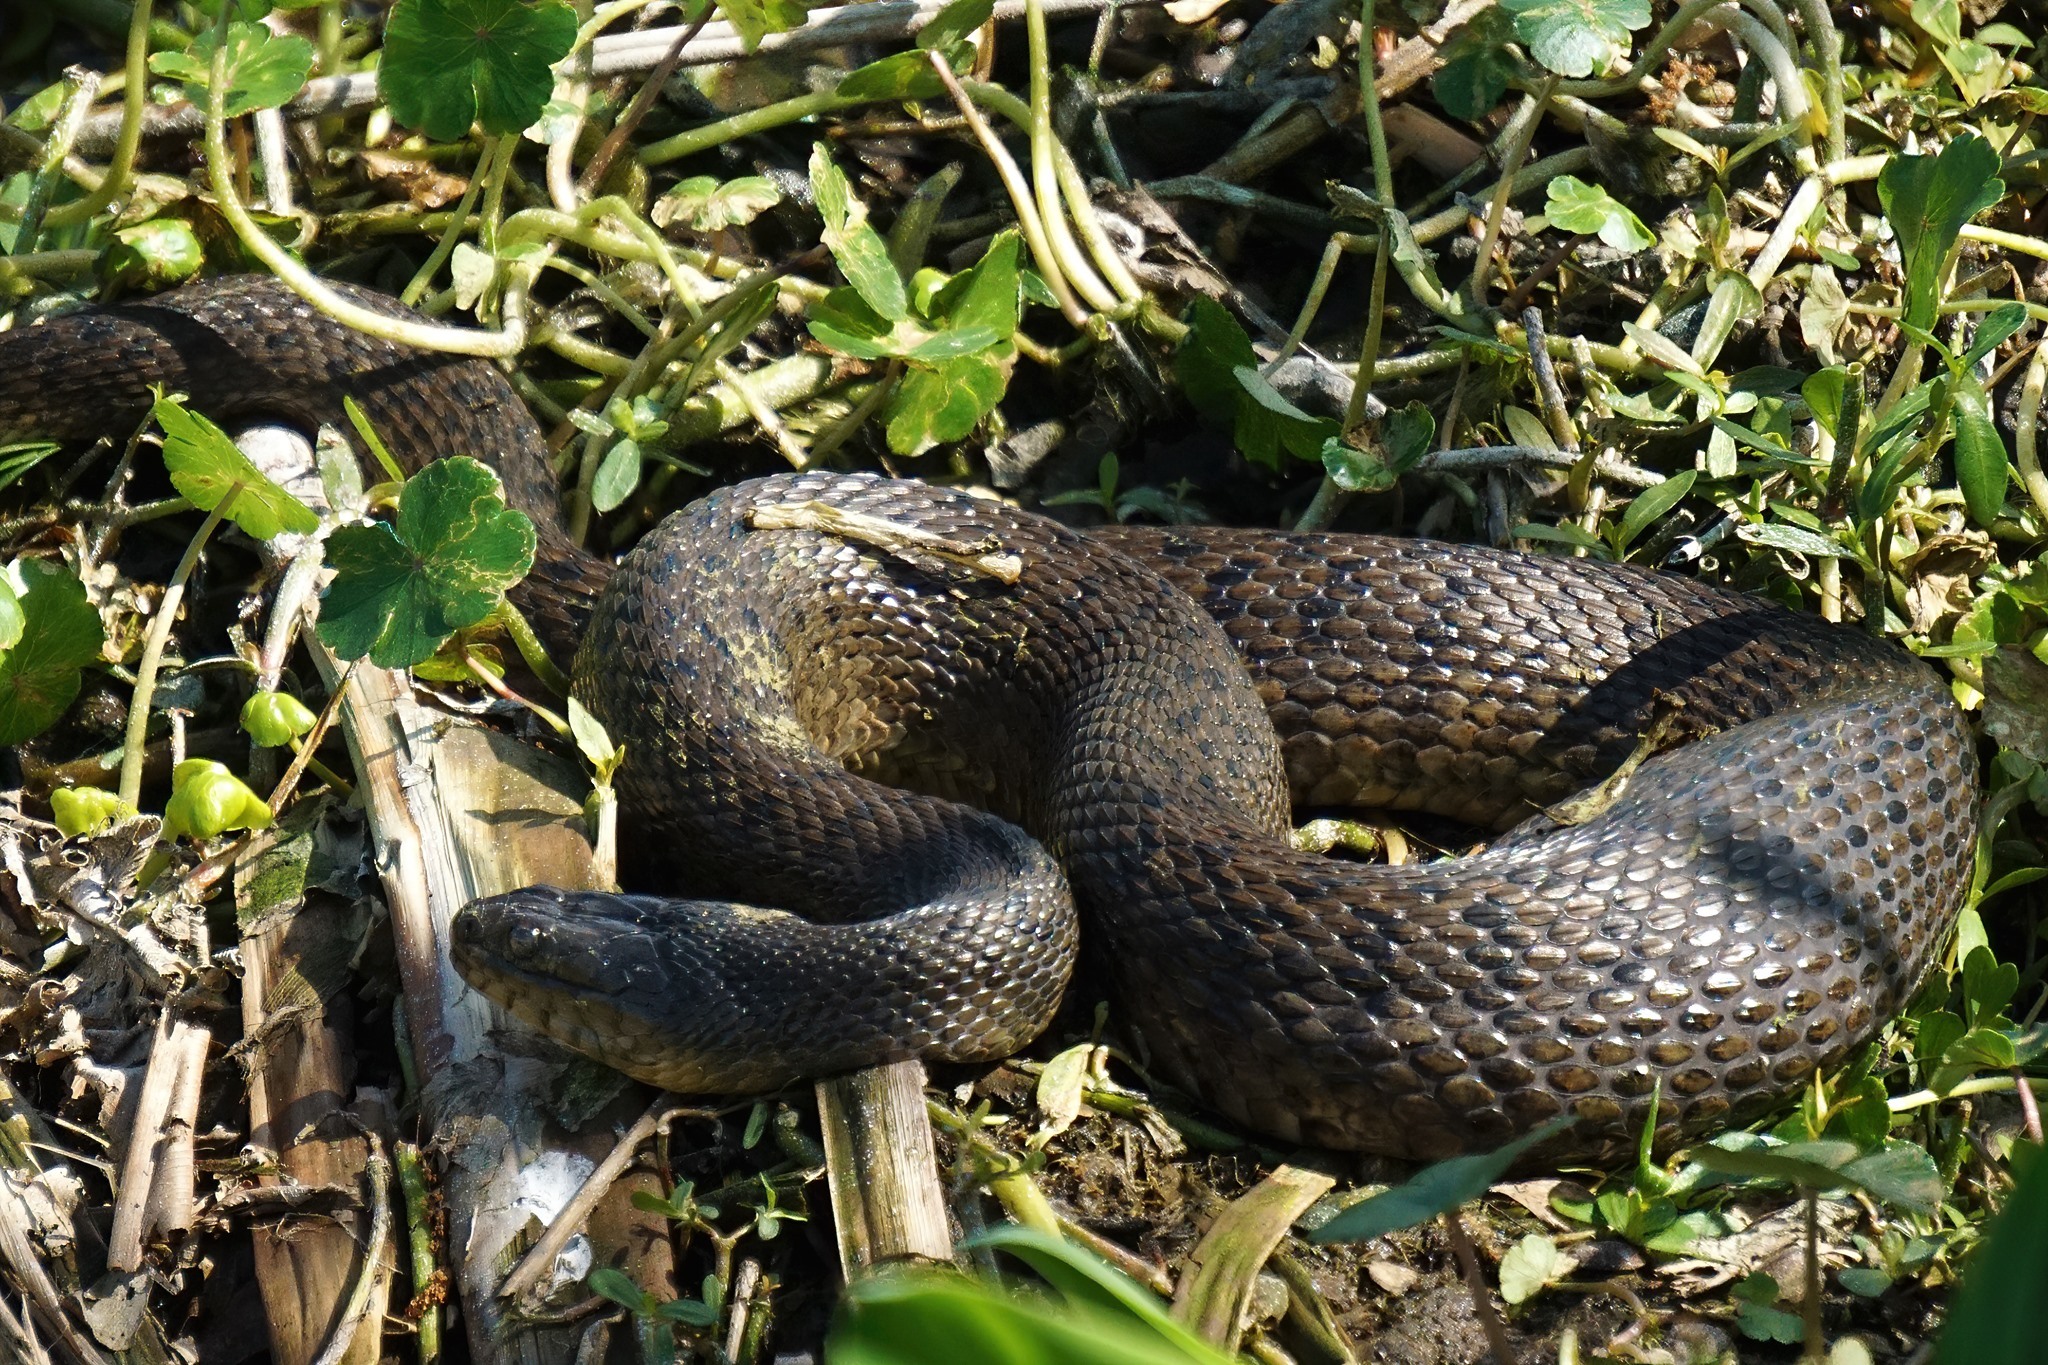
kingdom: Animalia
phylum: Chordata
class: Squamata
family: Colubridae
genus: Nerodia
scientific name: Nerodia floridana
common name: Florida green watersnake
